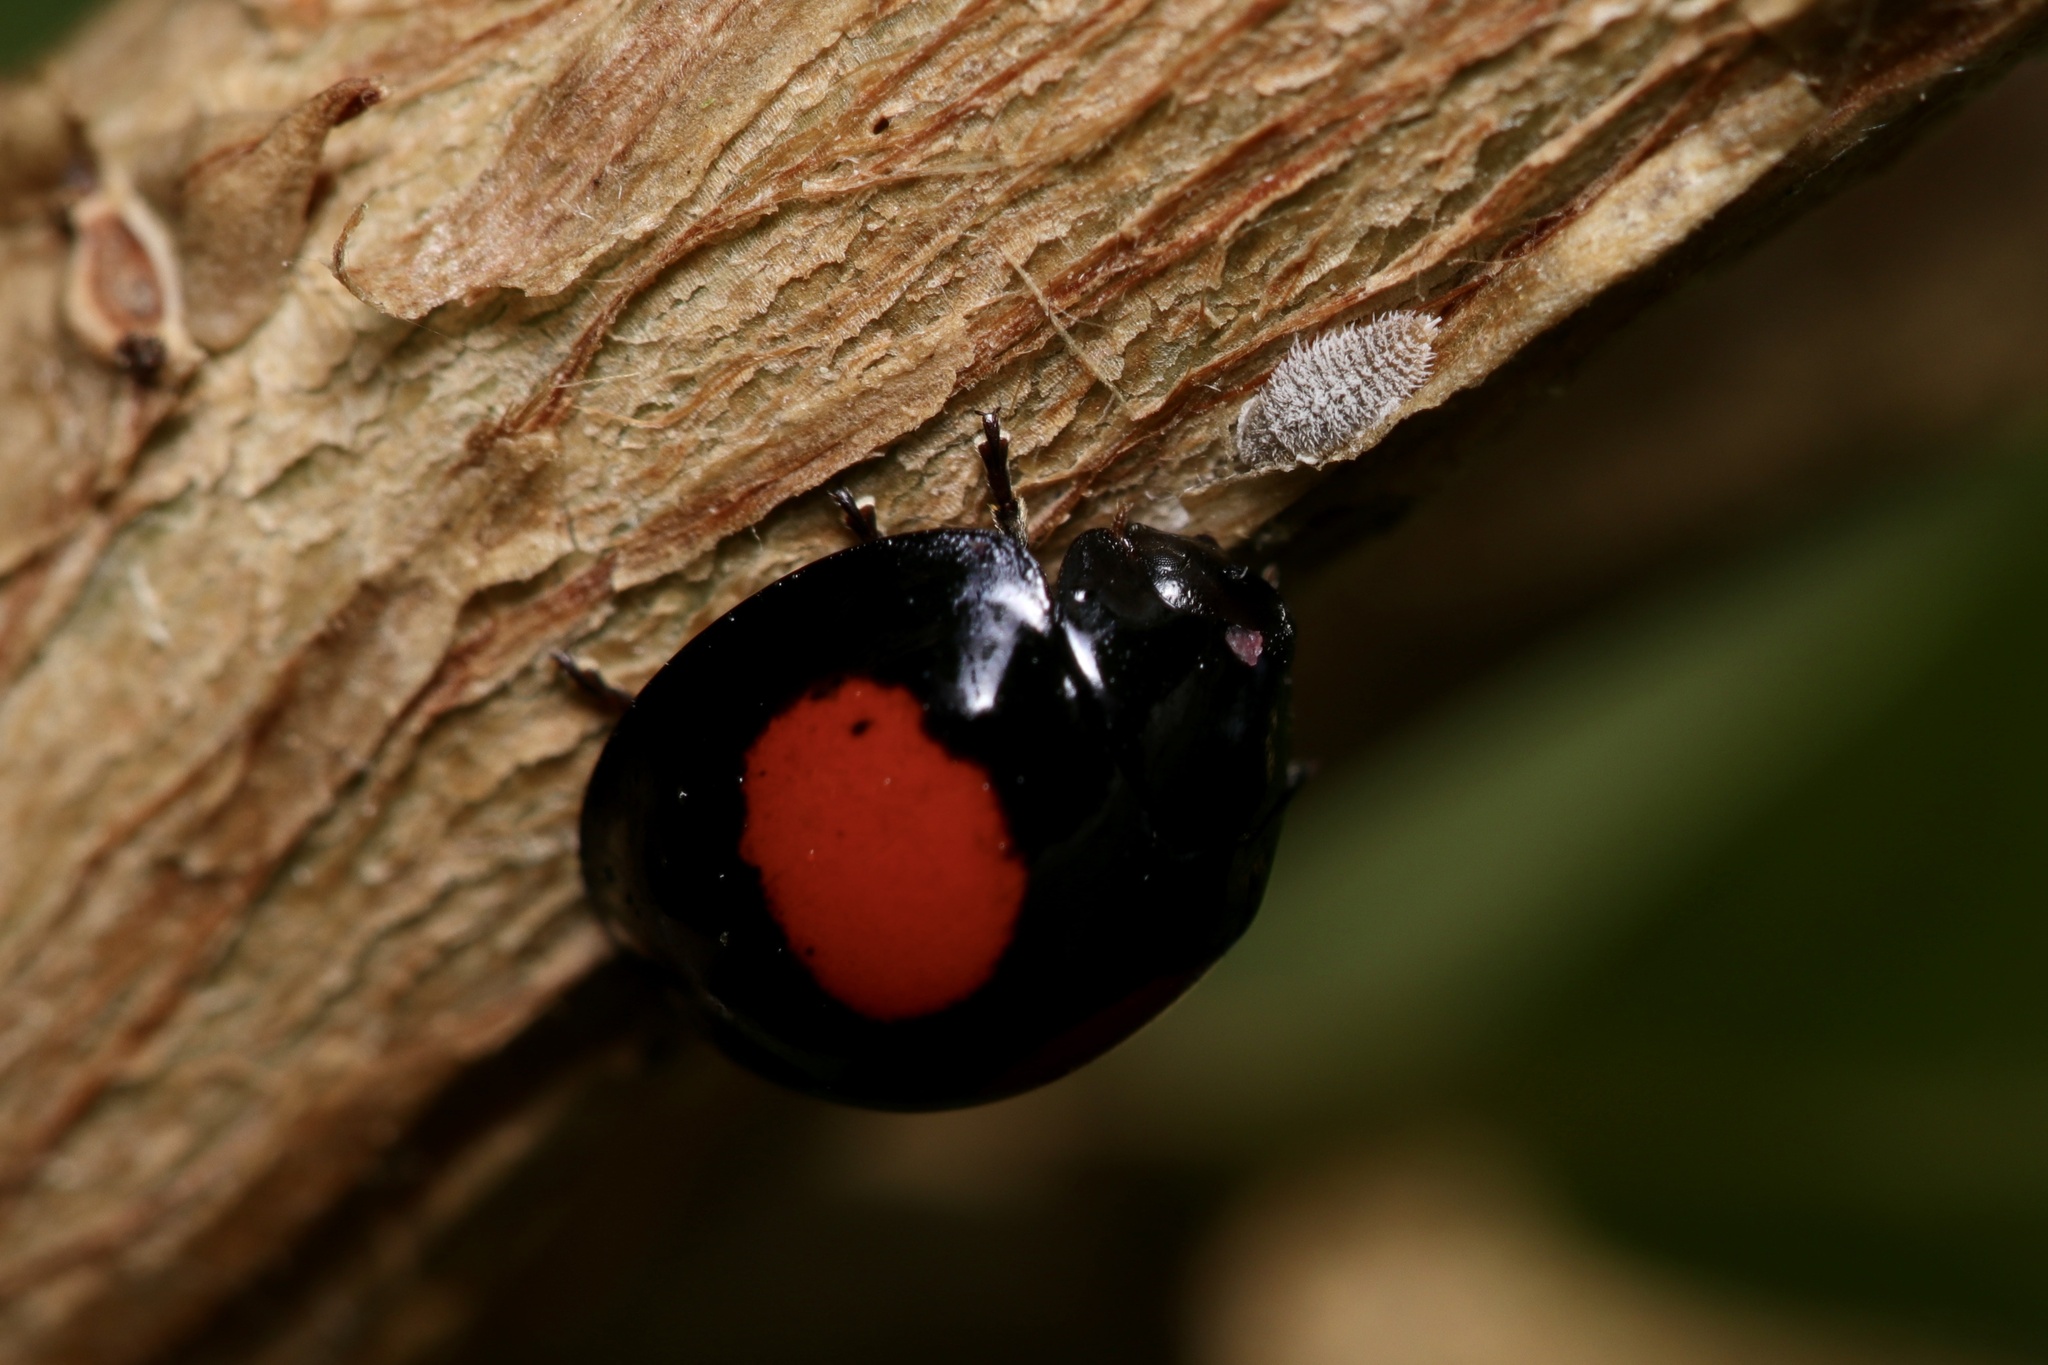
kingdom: Animalia
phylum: Arthropoda
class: Insecta
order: Coleoptera
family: Coccinellidae
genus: Chilocorus
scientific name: Chilocorus cacti
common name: Cactus lady beetle
